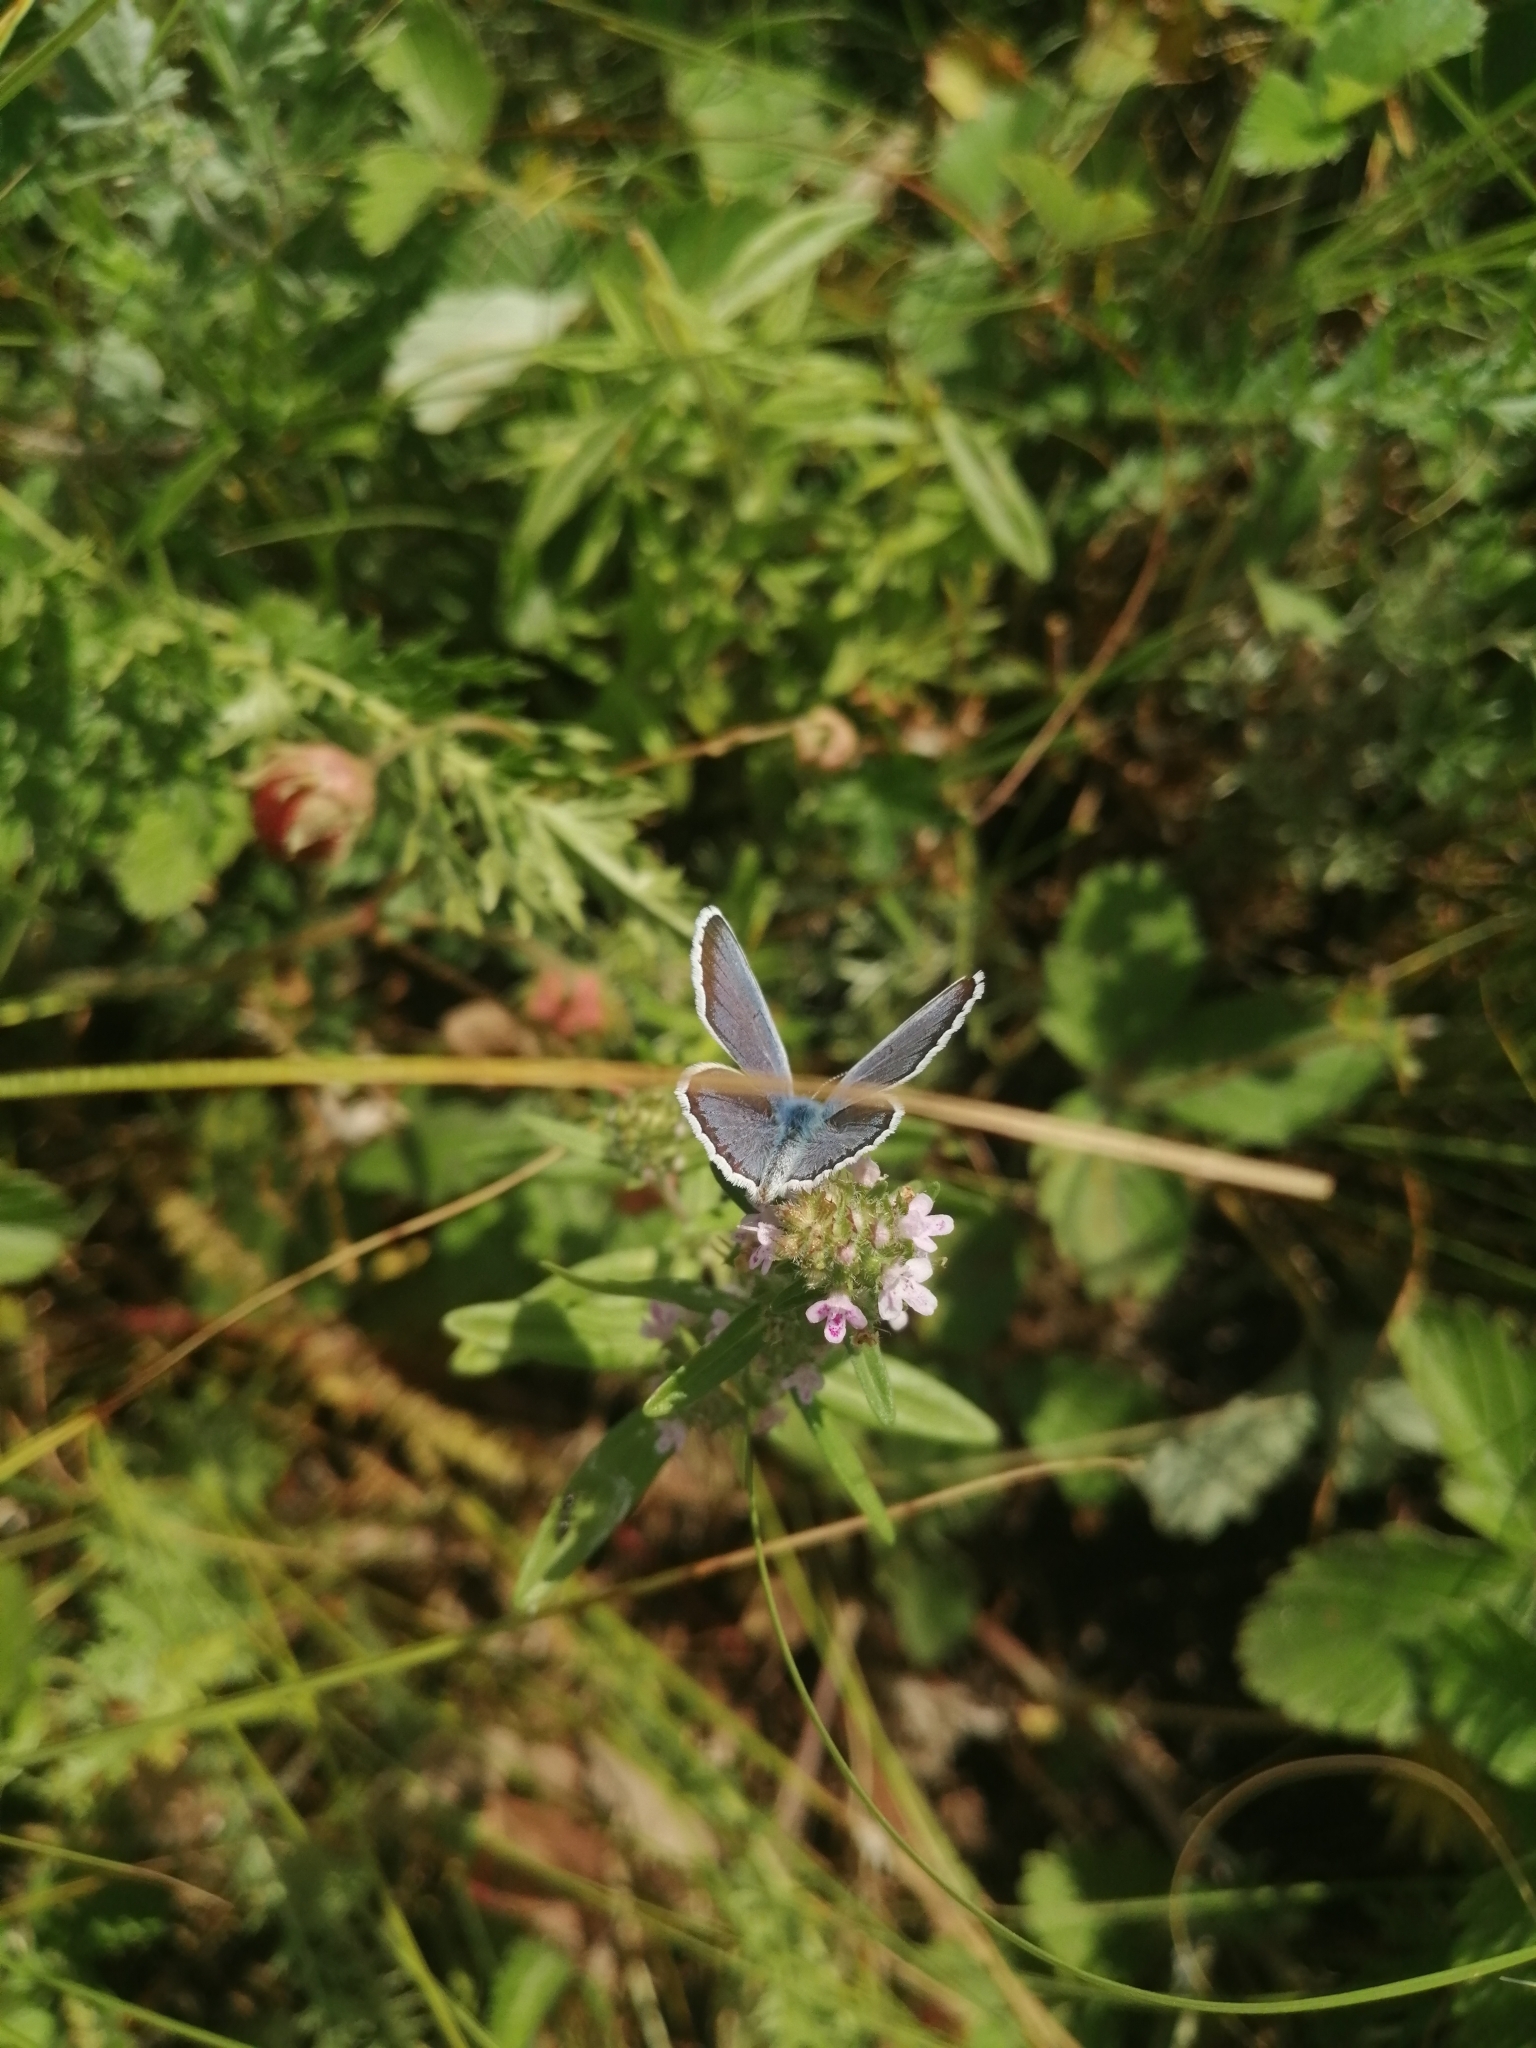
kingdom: Animalia
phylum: Arthropoda
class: Insecta
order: Lepidoptera
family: Lycaenidae
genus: Plebejus
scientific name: Plebejus argus
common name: Silver-studded blue
